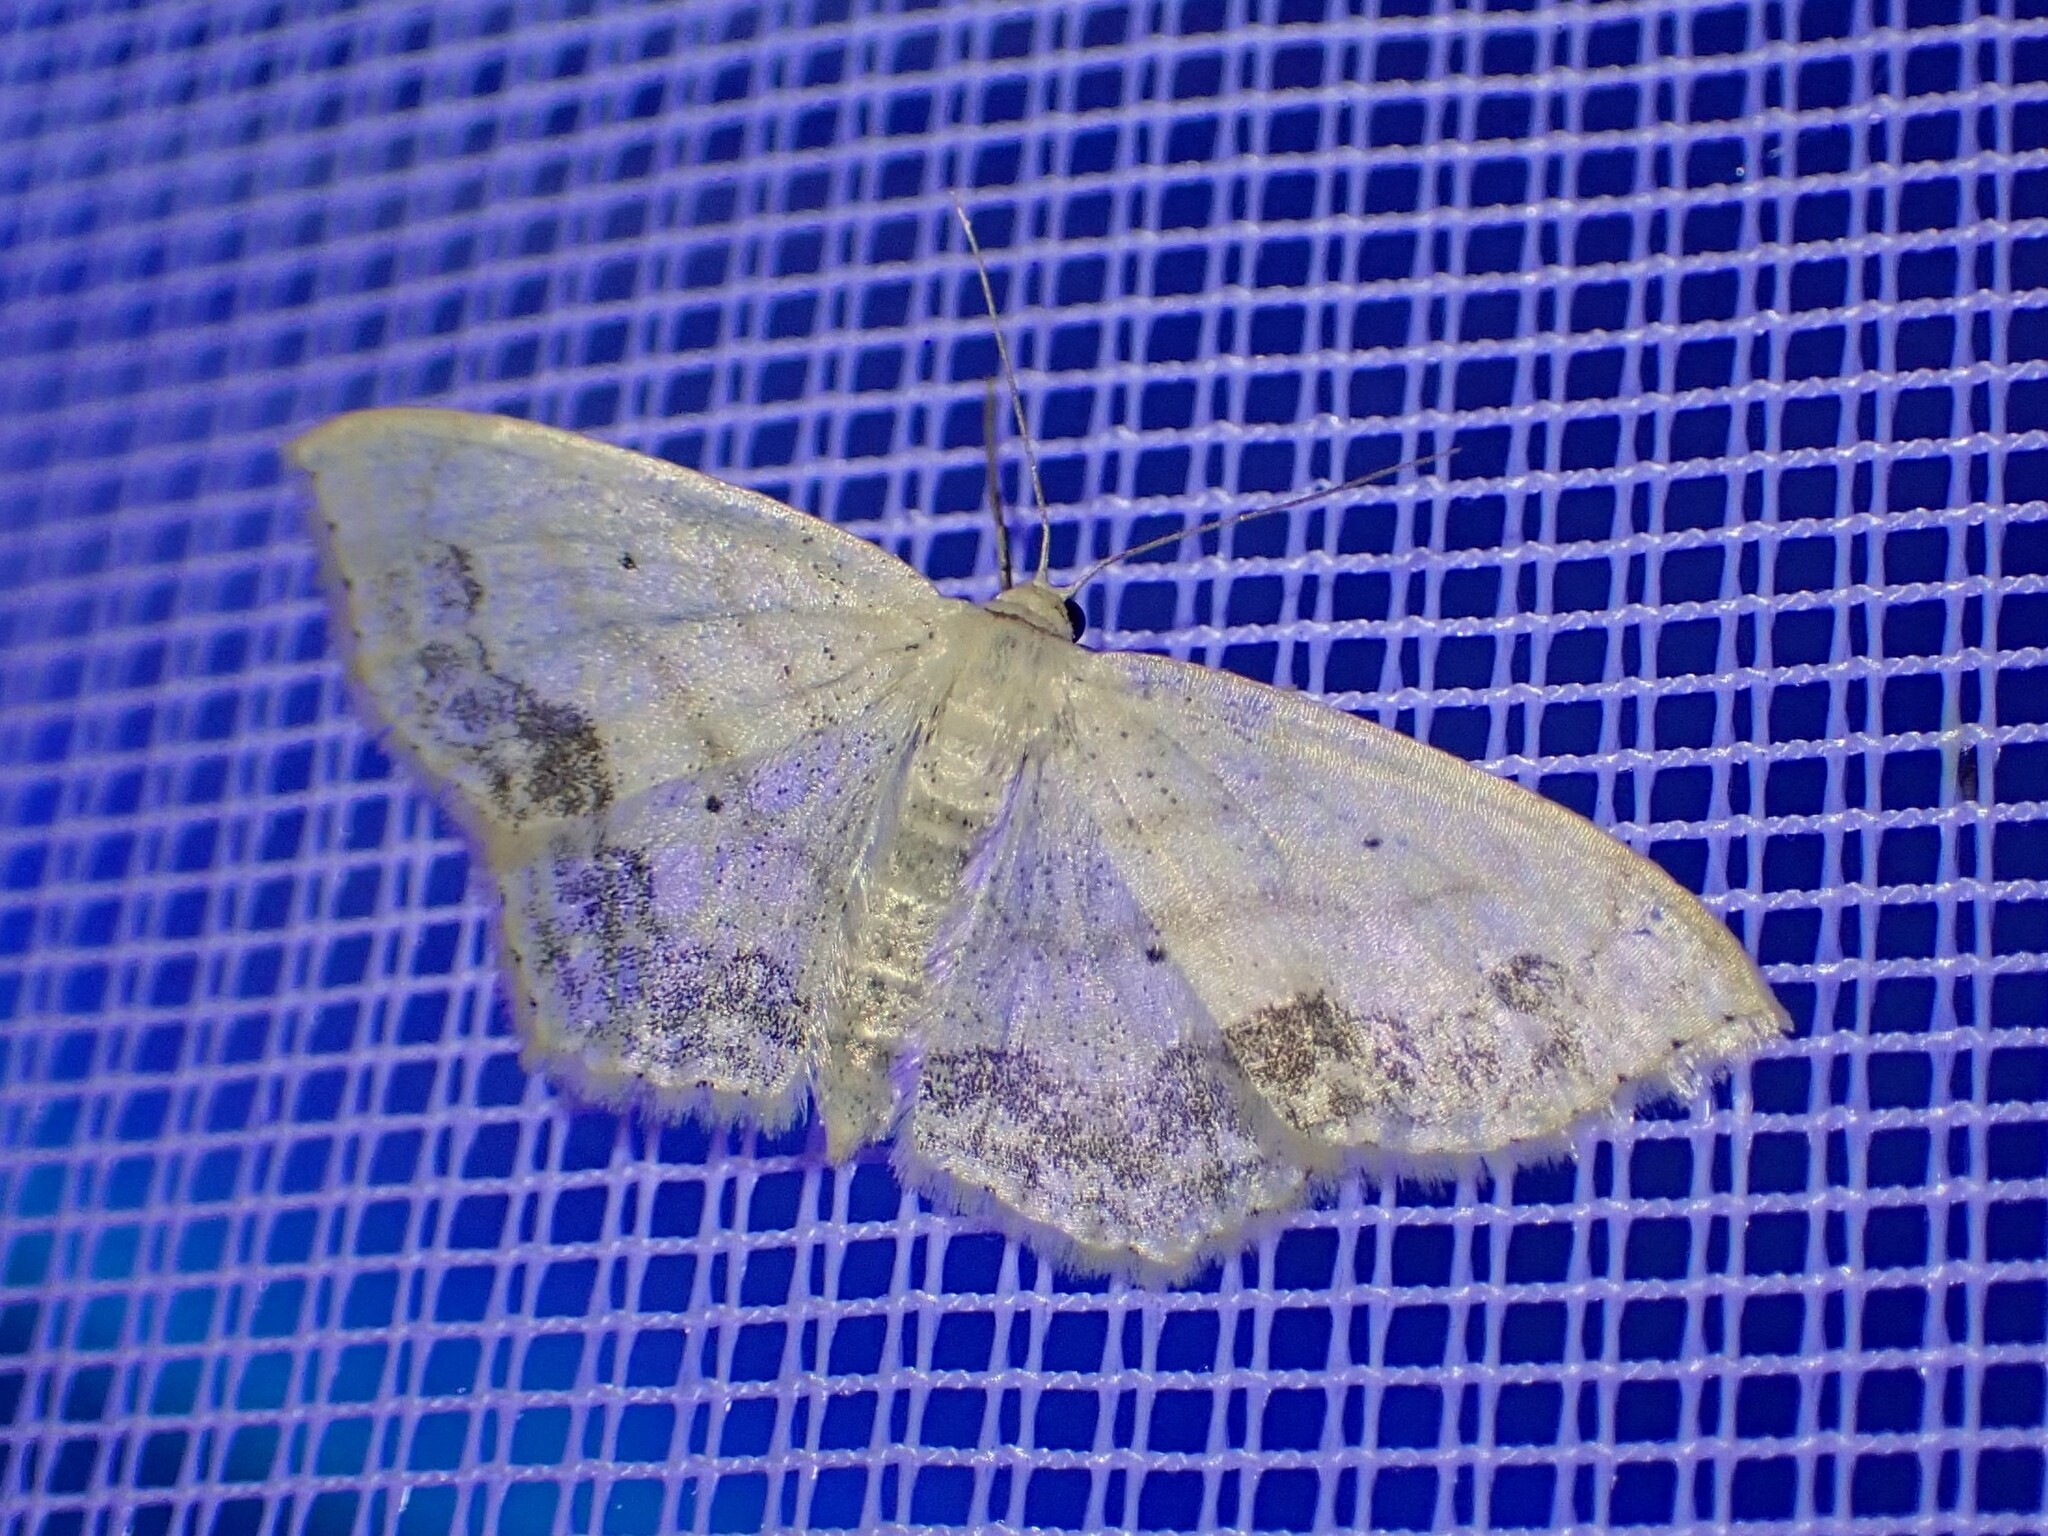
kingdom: Animalia
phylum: Arthropoda
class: Insecta
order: Lepidoptera
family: Geometridae
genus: Scopula
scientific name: Scopula limboundata
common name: Large lace border
